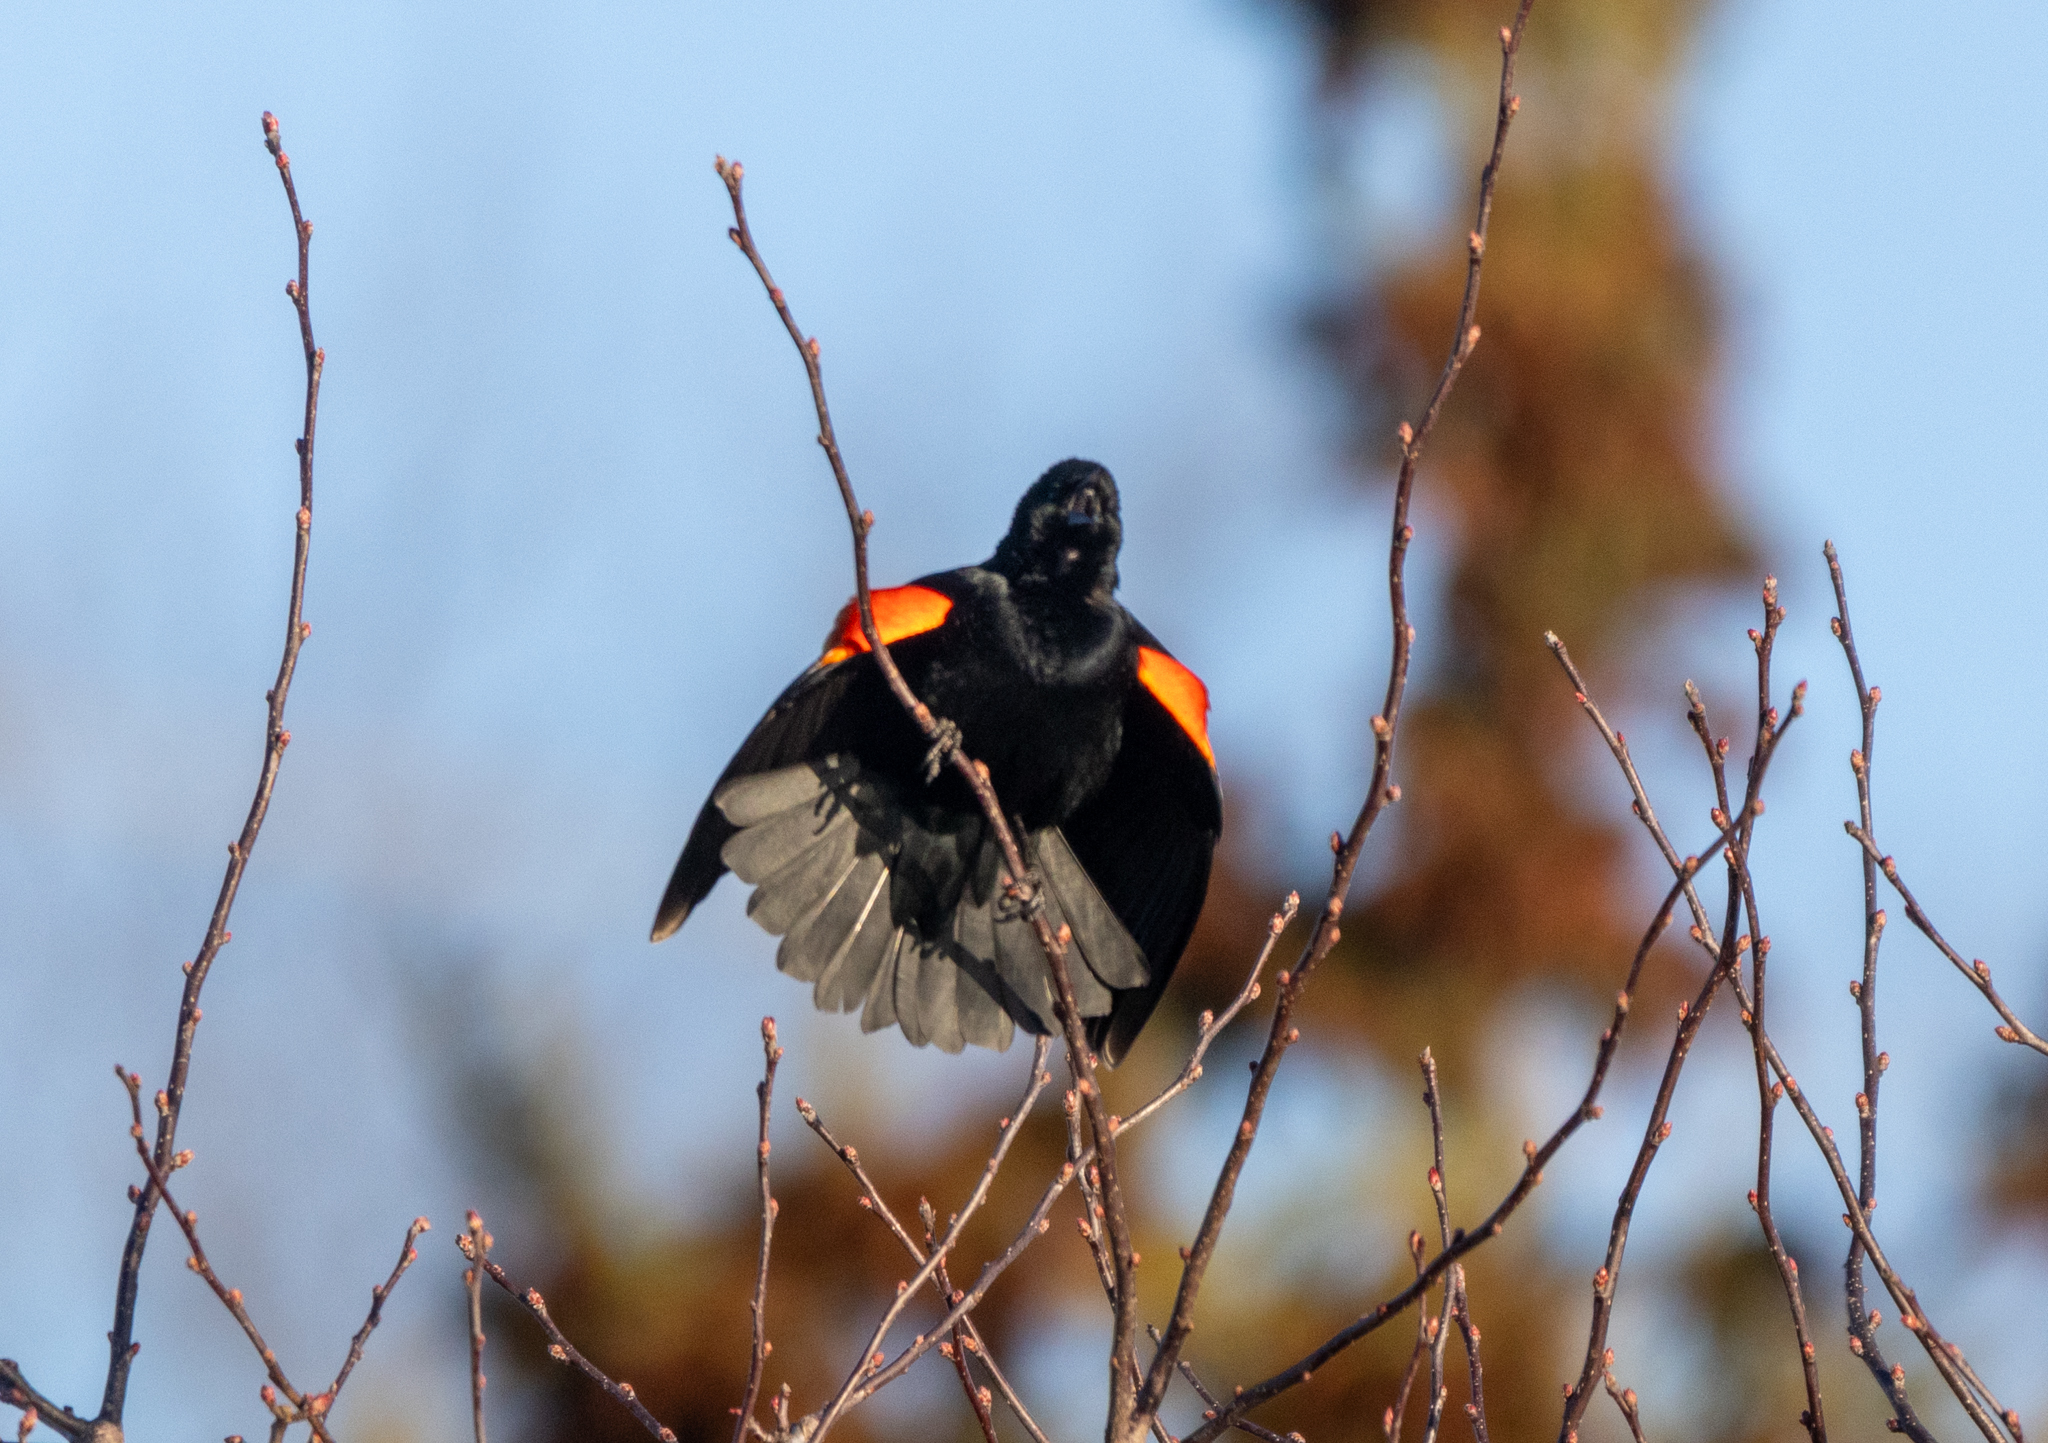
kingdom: Animalia
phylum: Chordata
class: Aves
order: Passeriformes
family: Icteridae
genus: Agelaius
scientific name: Agelaius phoeniceus
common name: Red-winged blackbird
